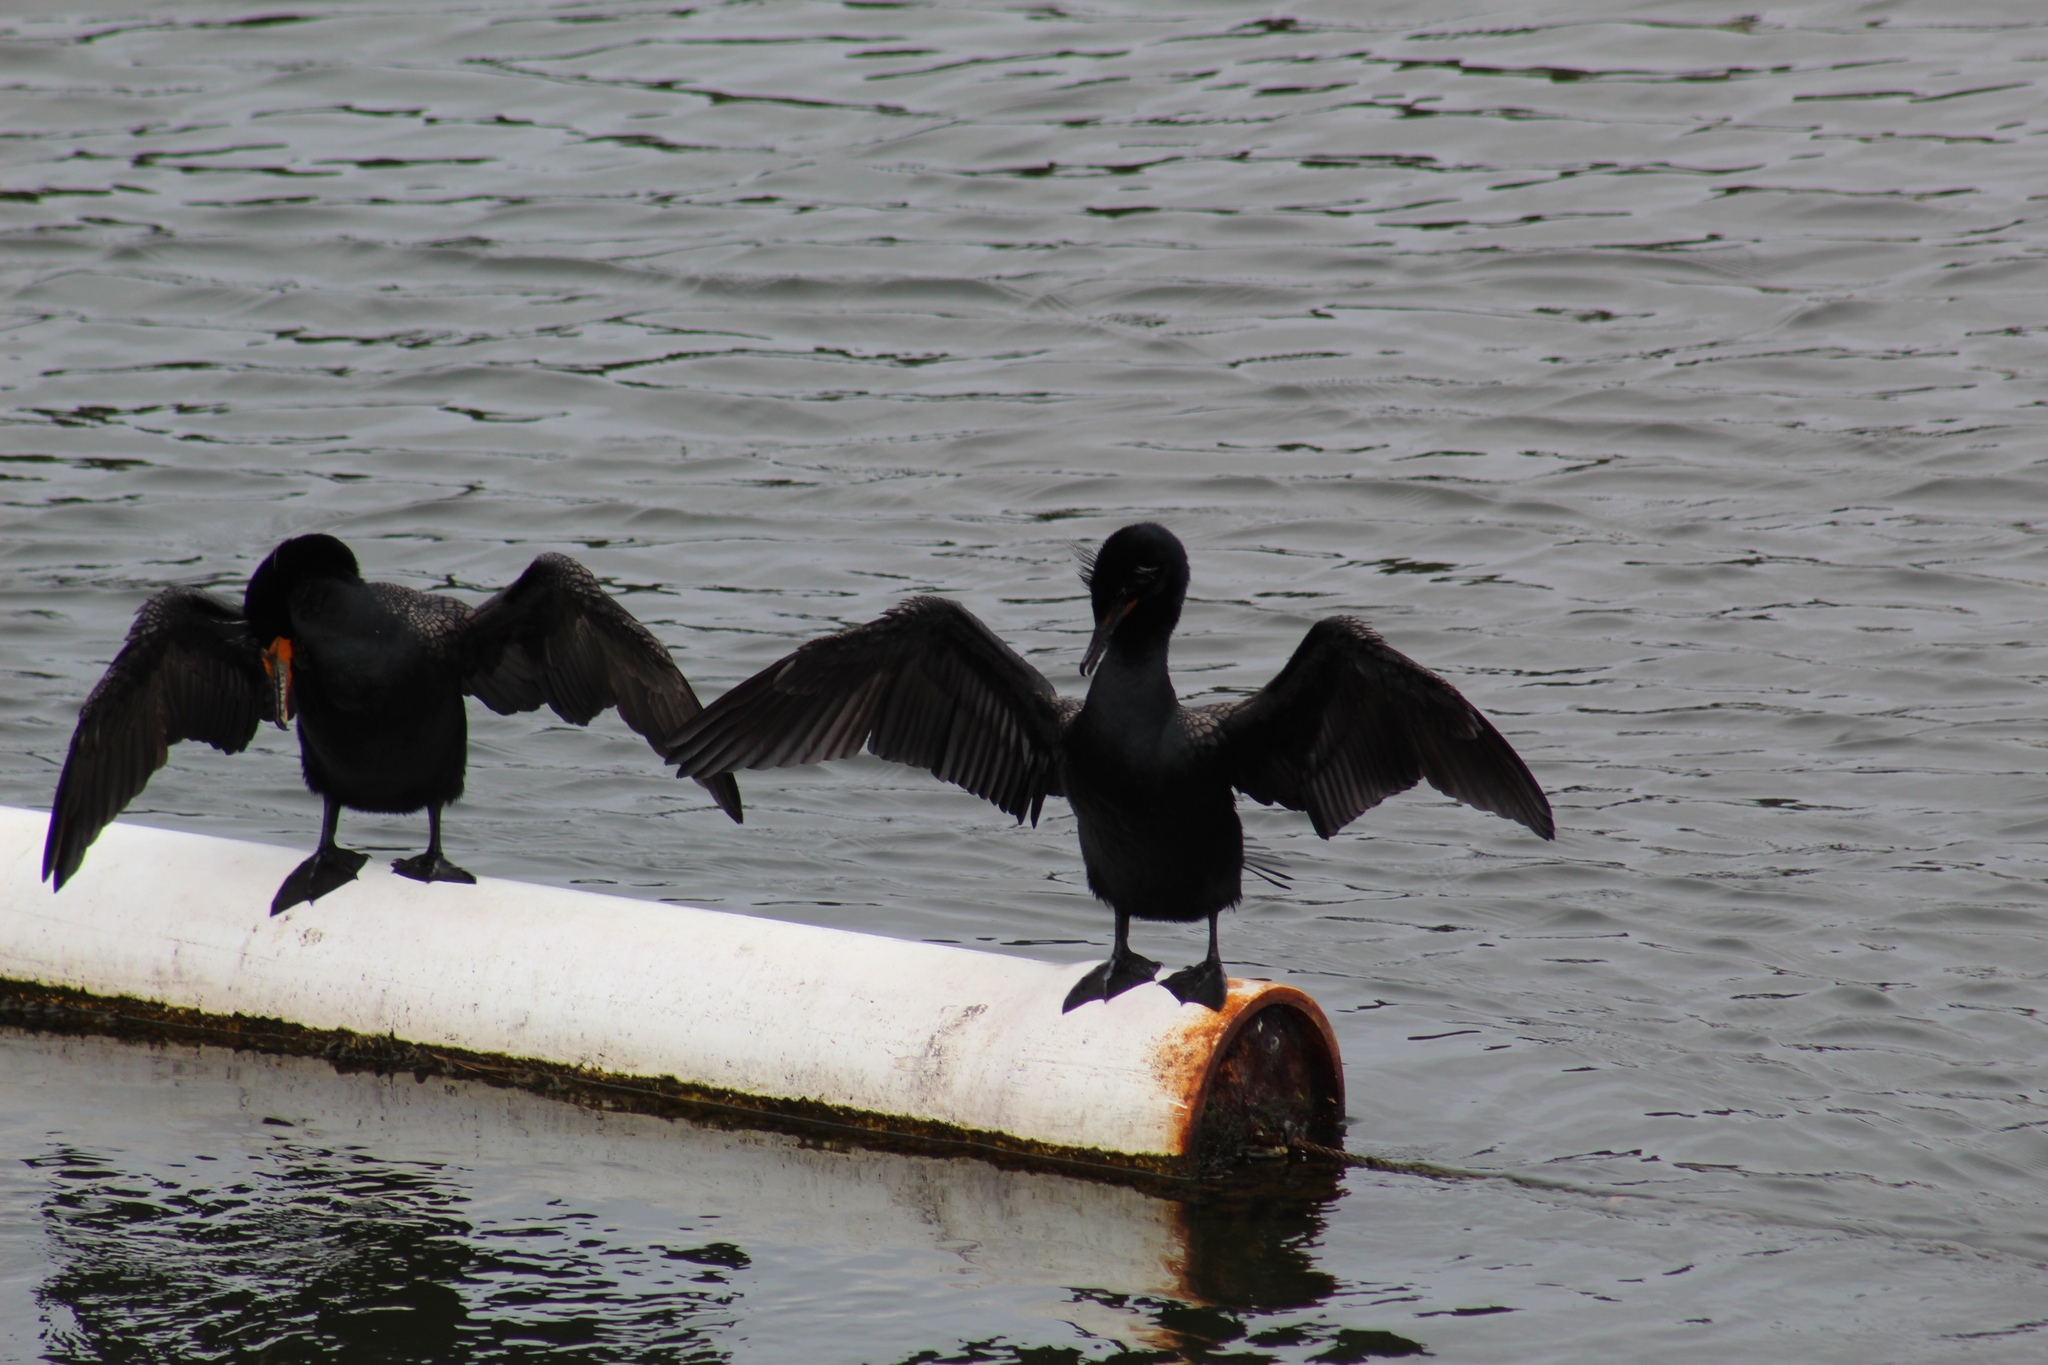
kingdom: Animalia
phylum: Chordata
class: Aves
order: Suliformes
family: Phalacrocoracidae
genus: Phalacrocorax
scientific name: Phalacrocorax auritus
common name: Double-crested cormorant
